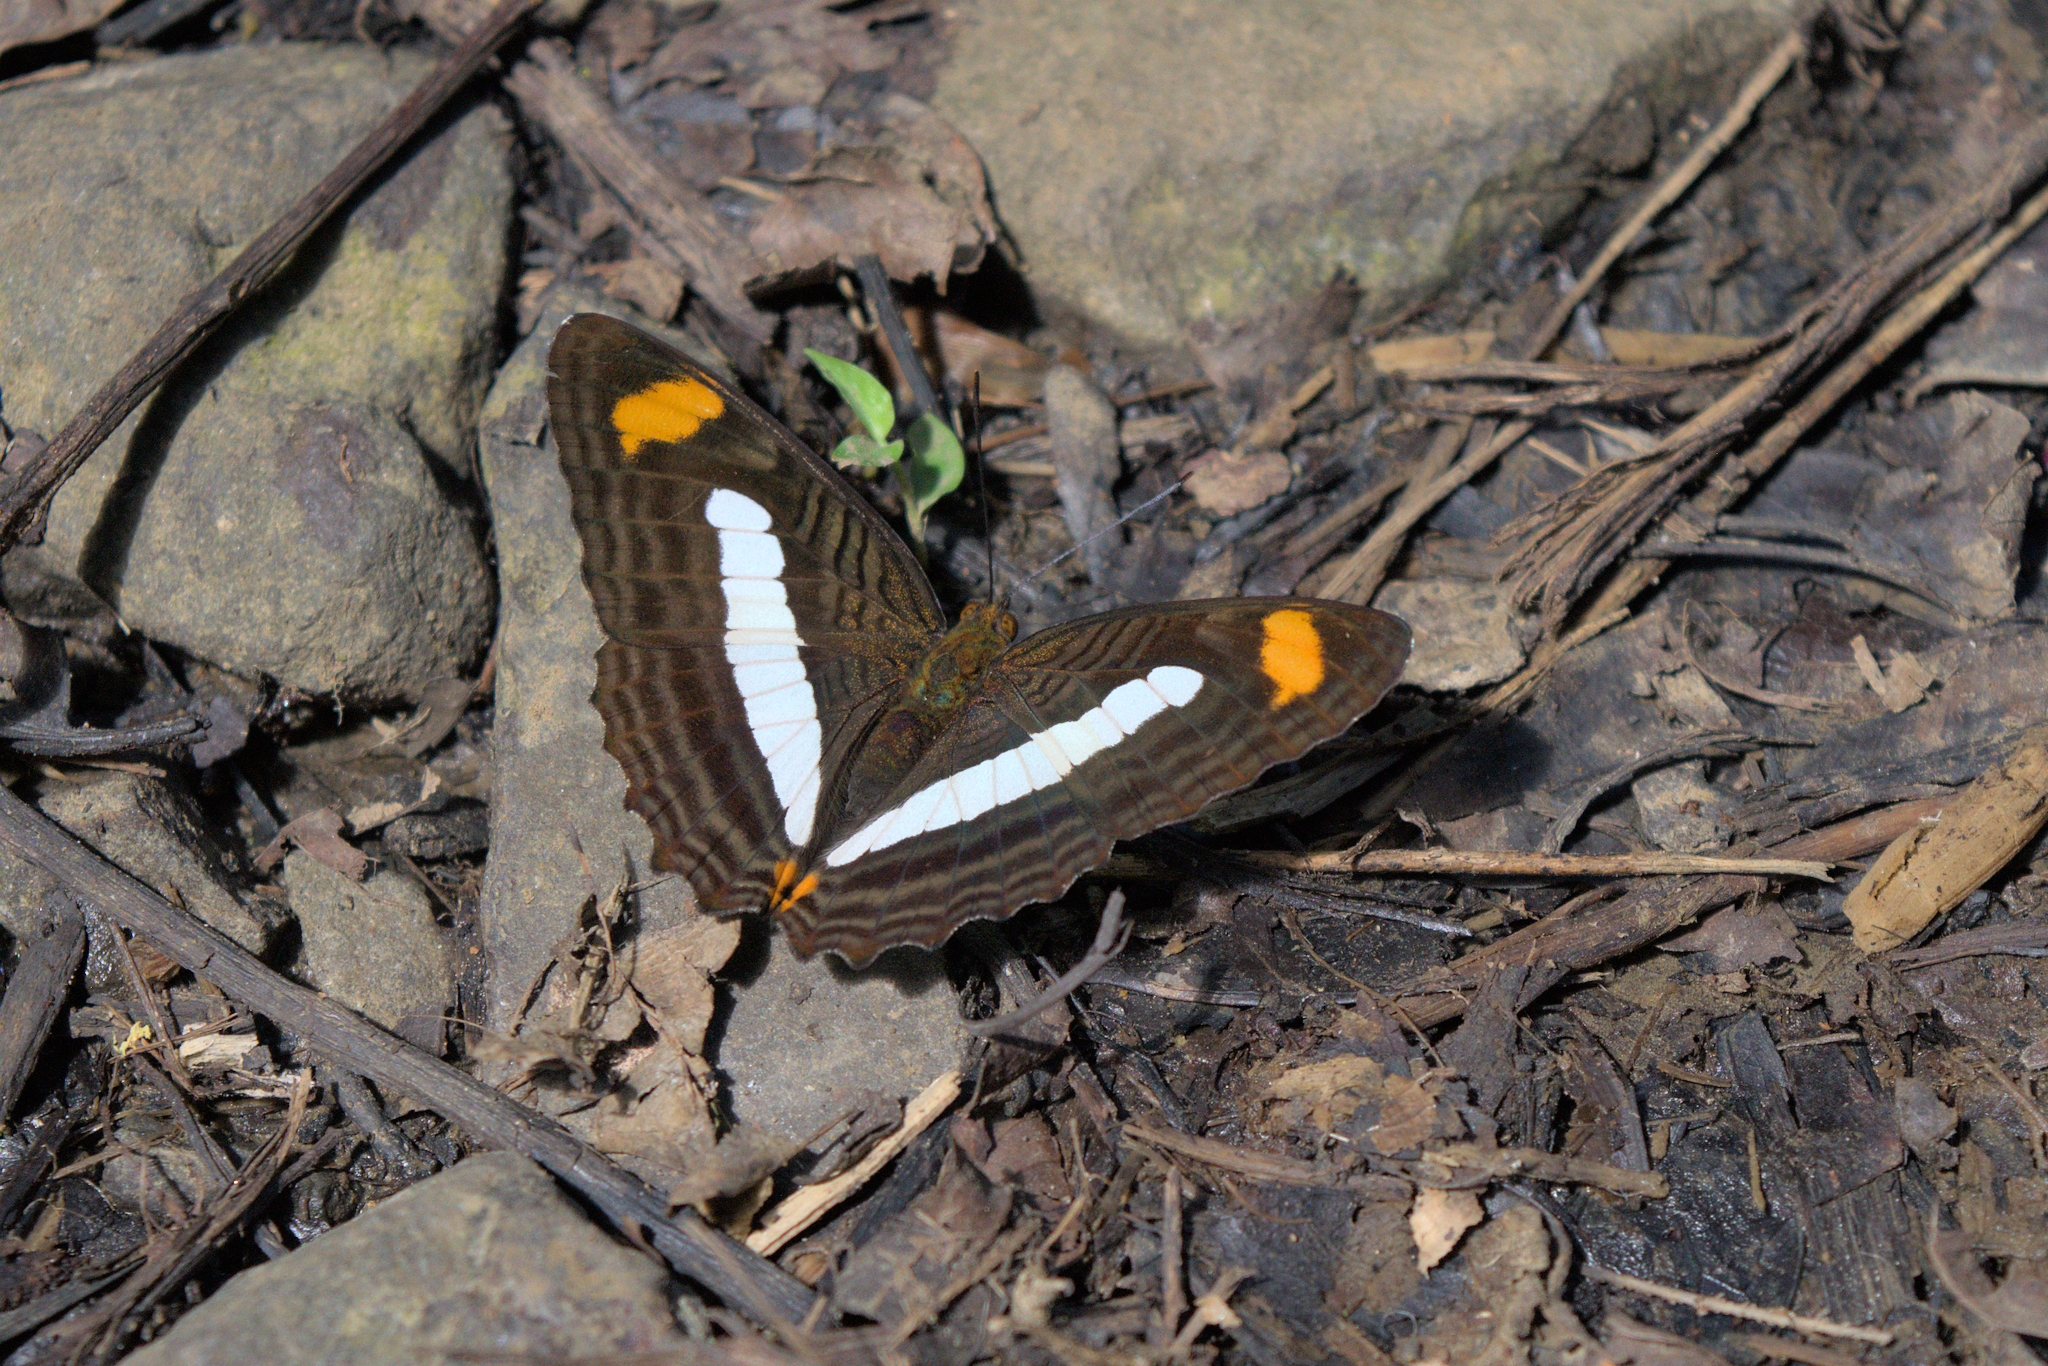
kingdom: Animalia
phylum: Arthropoda
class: Insecta
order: Lepidoptera
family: Nymphalidae
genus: Limenitis
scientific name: Limenitis Adelpha iphiclus
